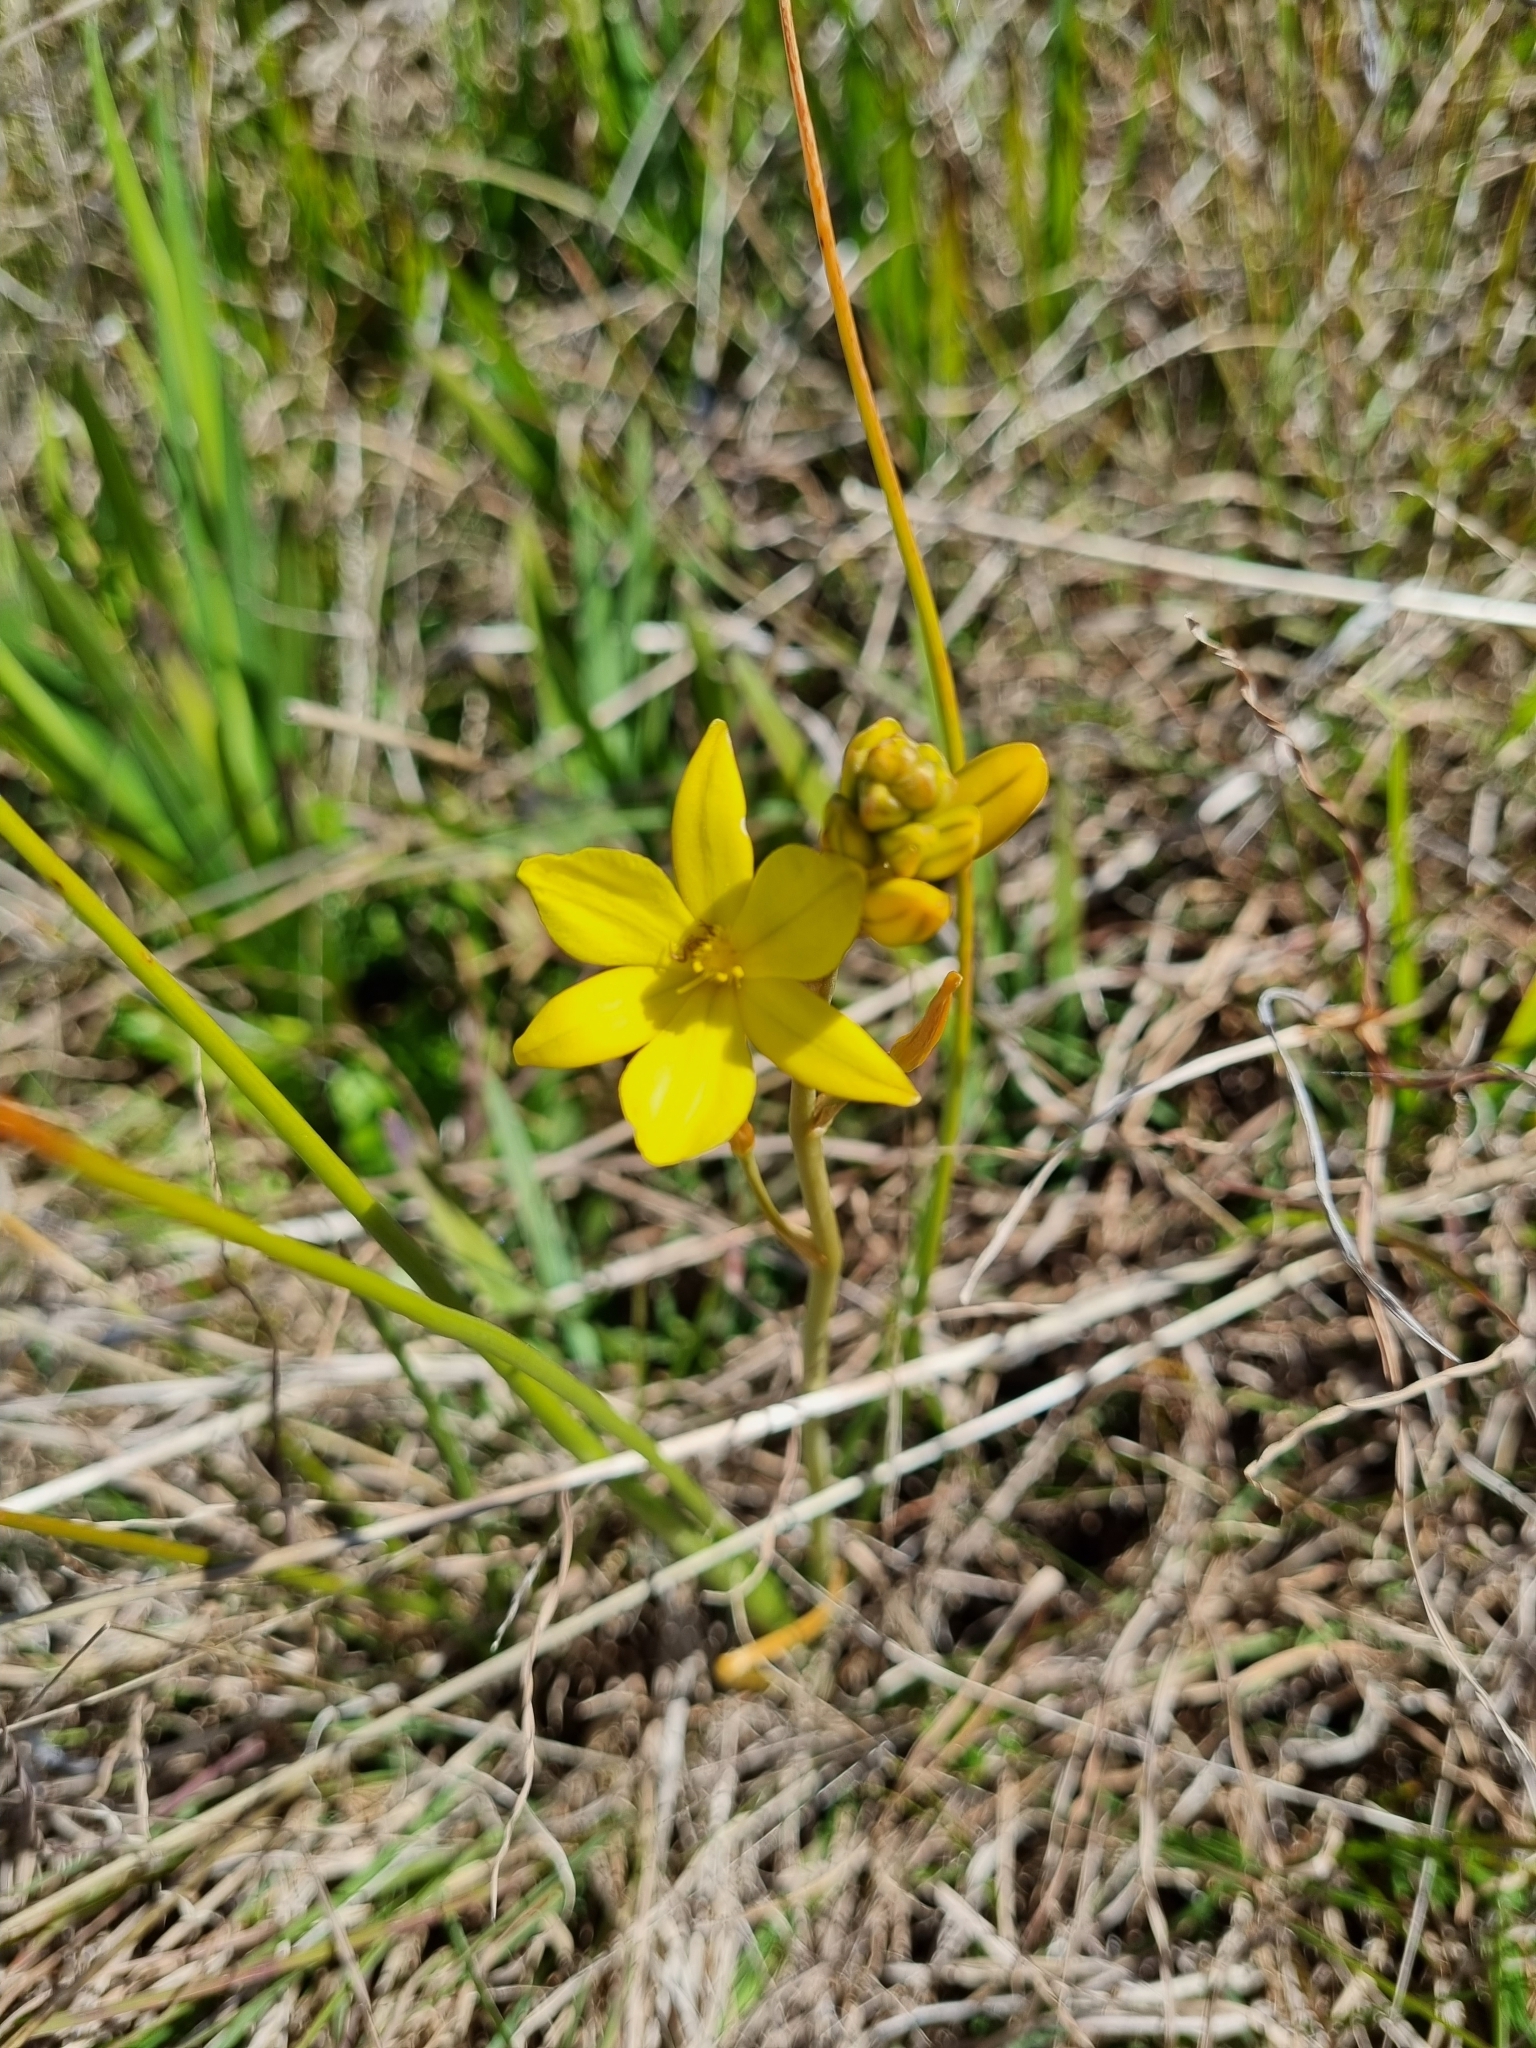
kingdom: Plantae
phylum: Tracheophyta
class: Liliopsida
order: Asparagales
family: Asphodelaceae
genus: Bulbine
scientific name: Bulbine bulbosa
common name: Golden-lily
